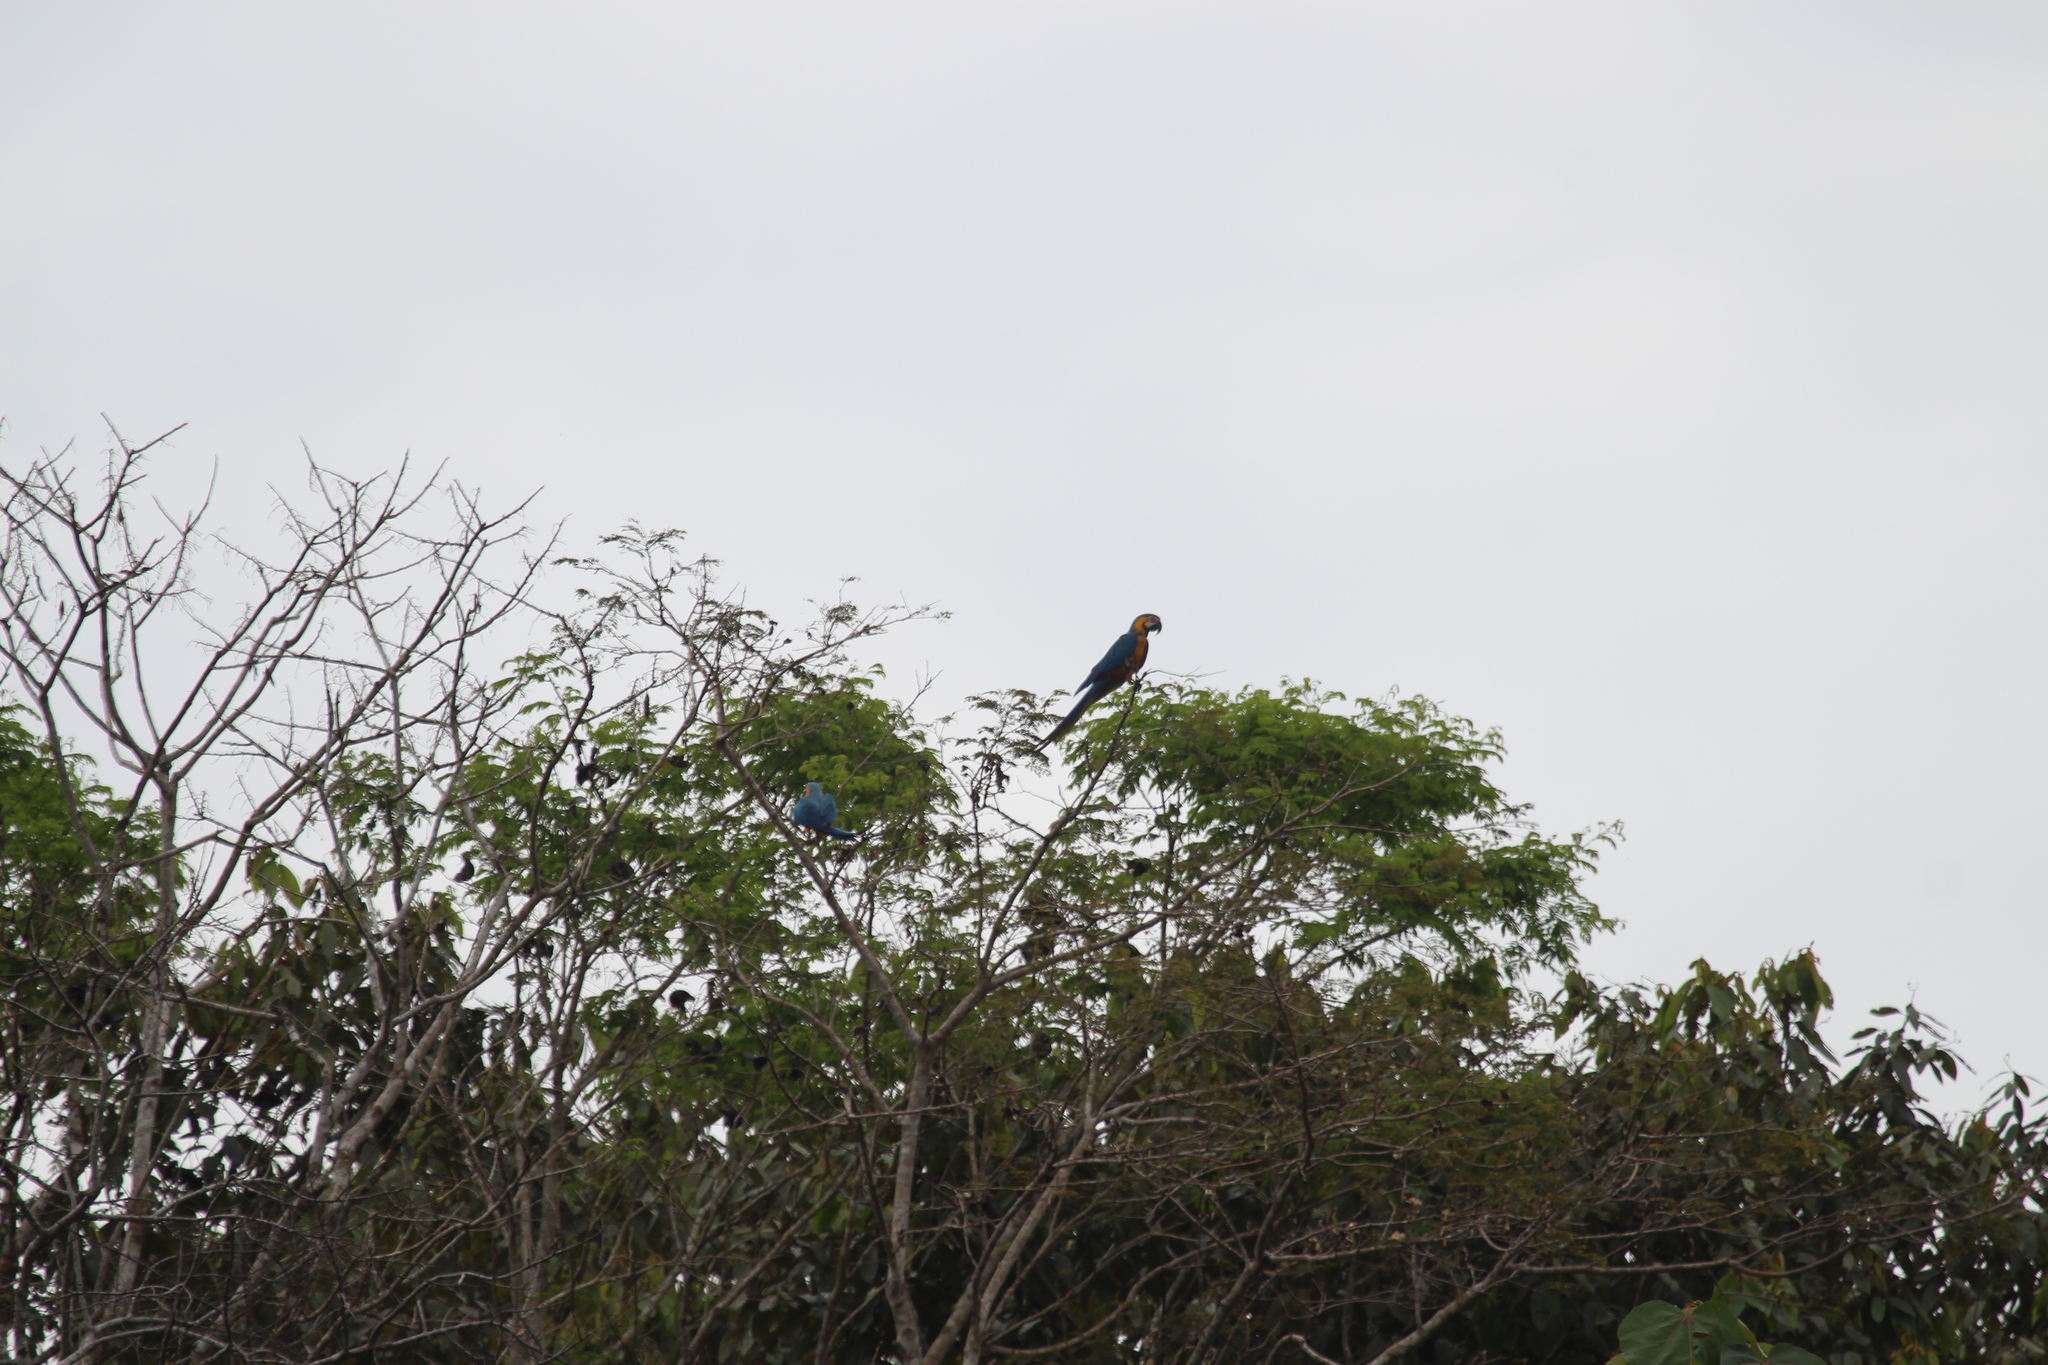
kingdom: Animalia
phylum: Chordata
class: Aves
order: Psittaciformes
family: Psittacidae
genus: Ara
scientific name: Ara ararauna
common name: Blue-and-yellow macaw
